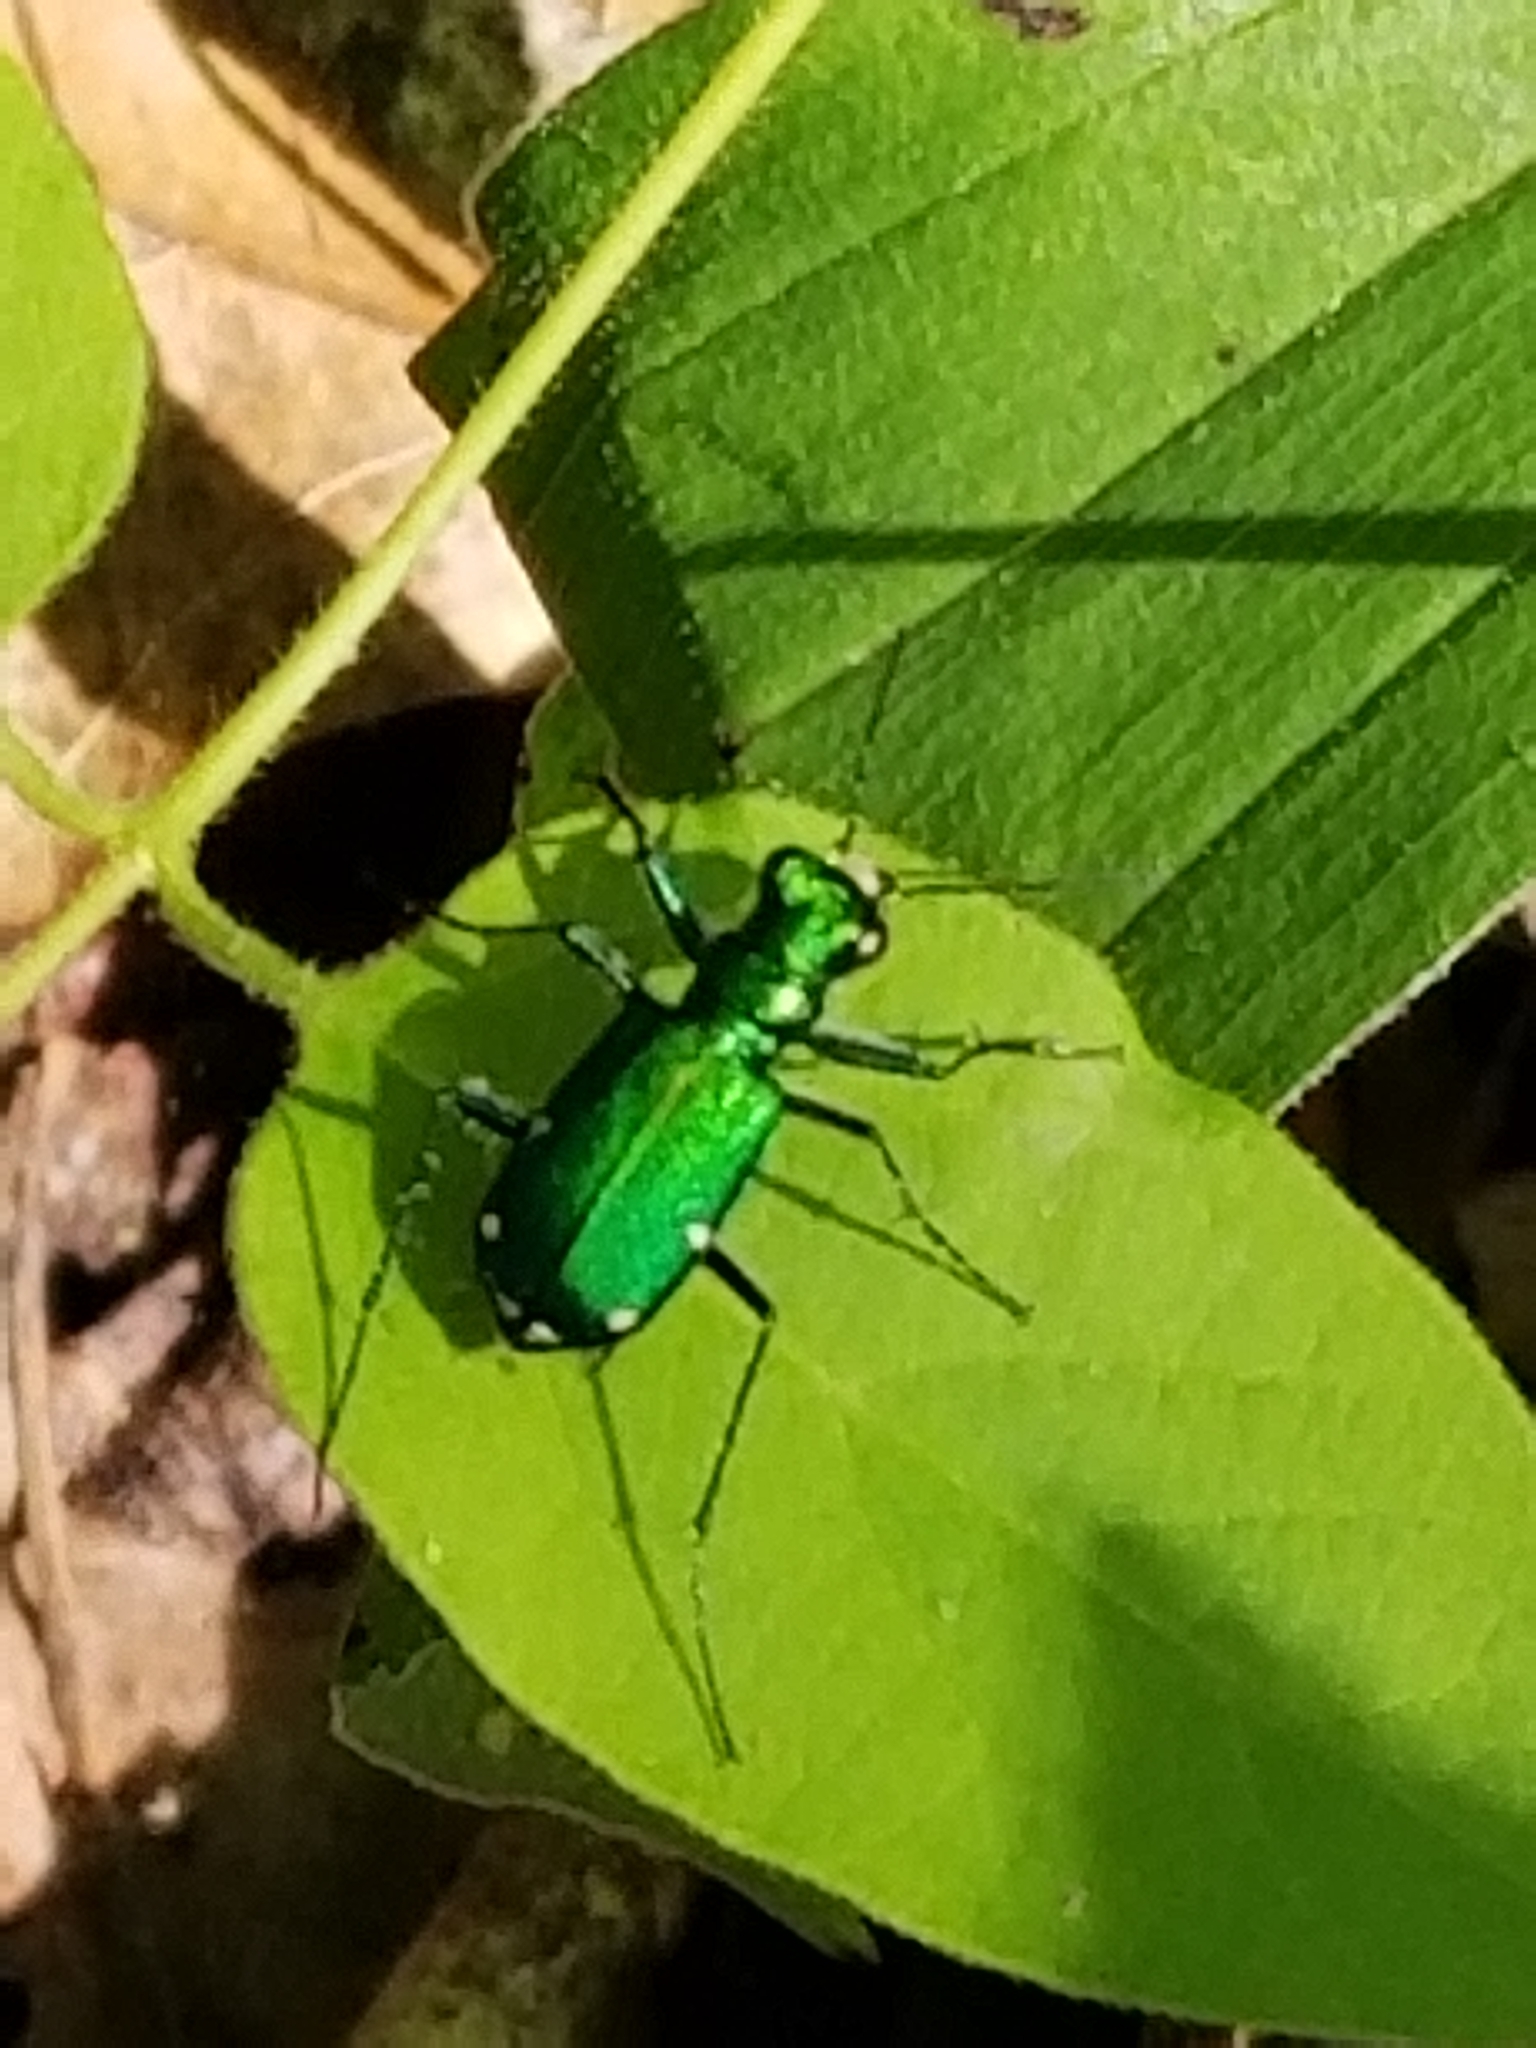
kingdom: Animalia
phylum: Arthropoda
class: Insecta
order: Coleoptera
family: Carabidae
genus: Cicindela
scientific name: Cicindela sexguttata
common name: Six-spotted tiger beetle
